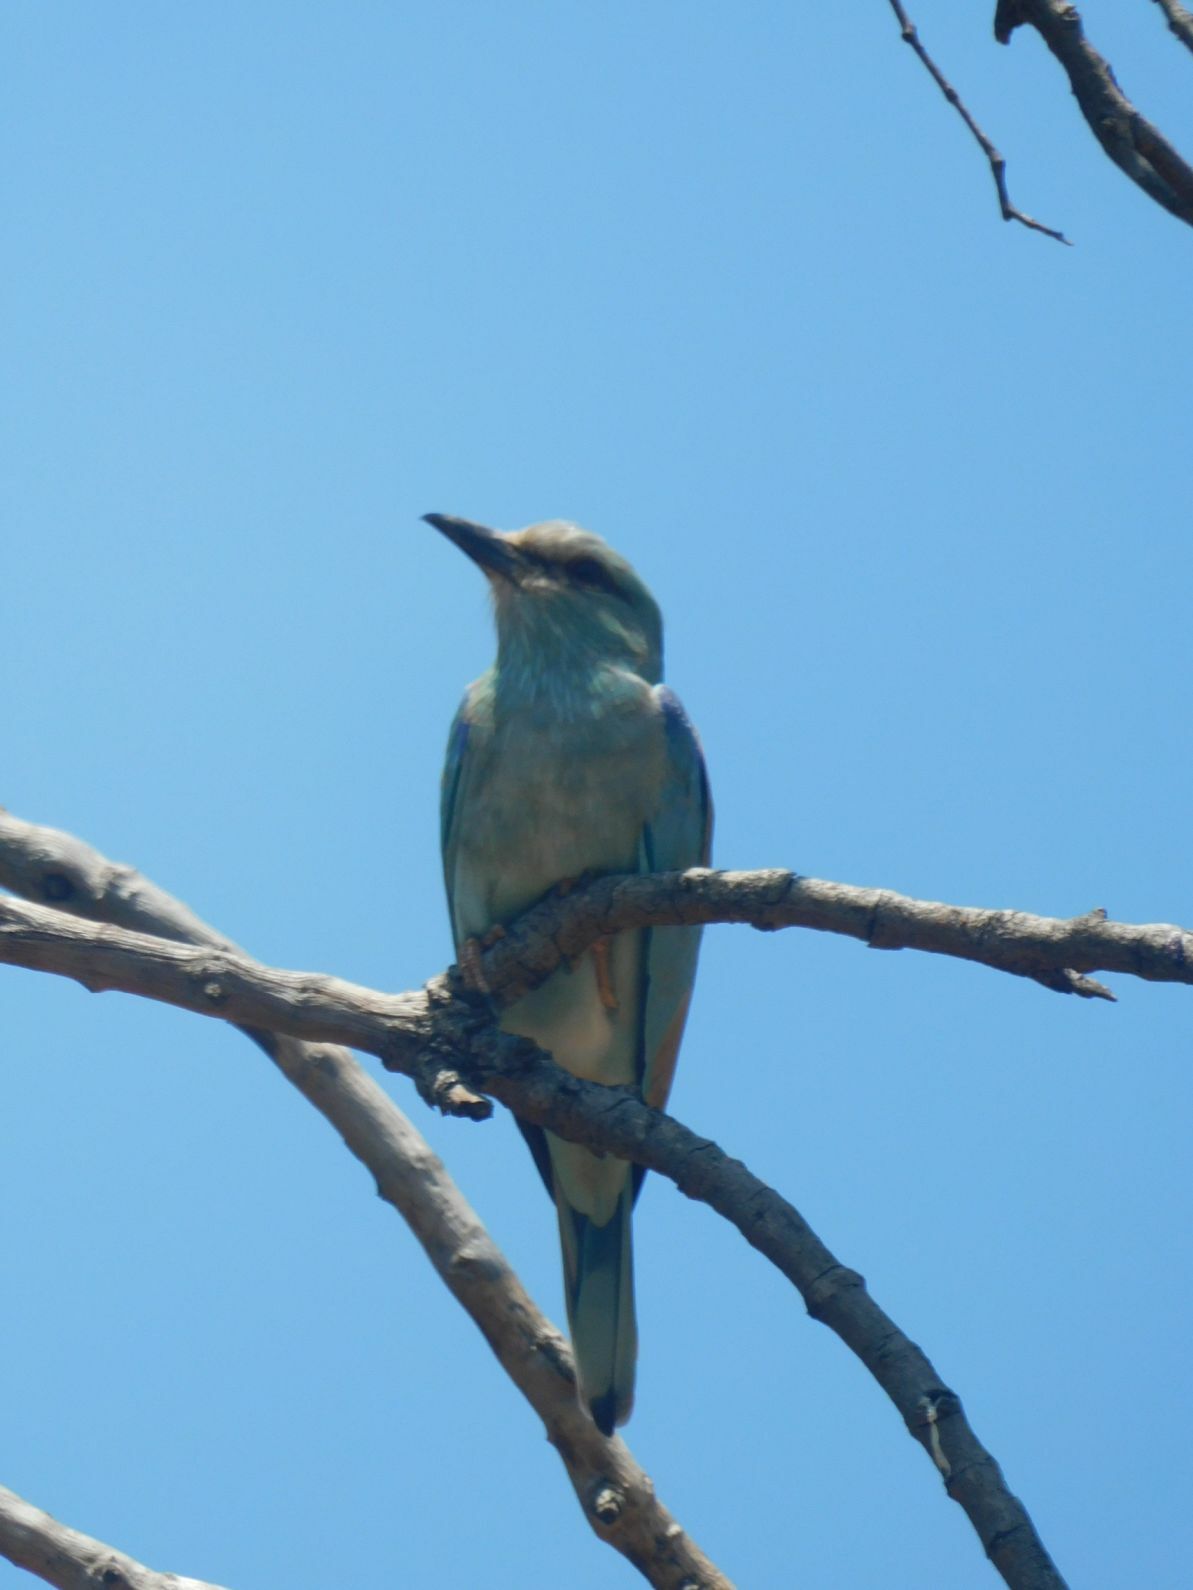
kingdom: Animalia
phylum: Chordata
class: Aves
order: Coraciiformes
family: Coraciidae
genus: Coracias
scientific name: Coracias garrulus
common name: European roller
